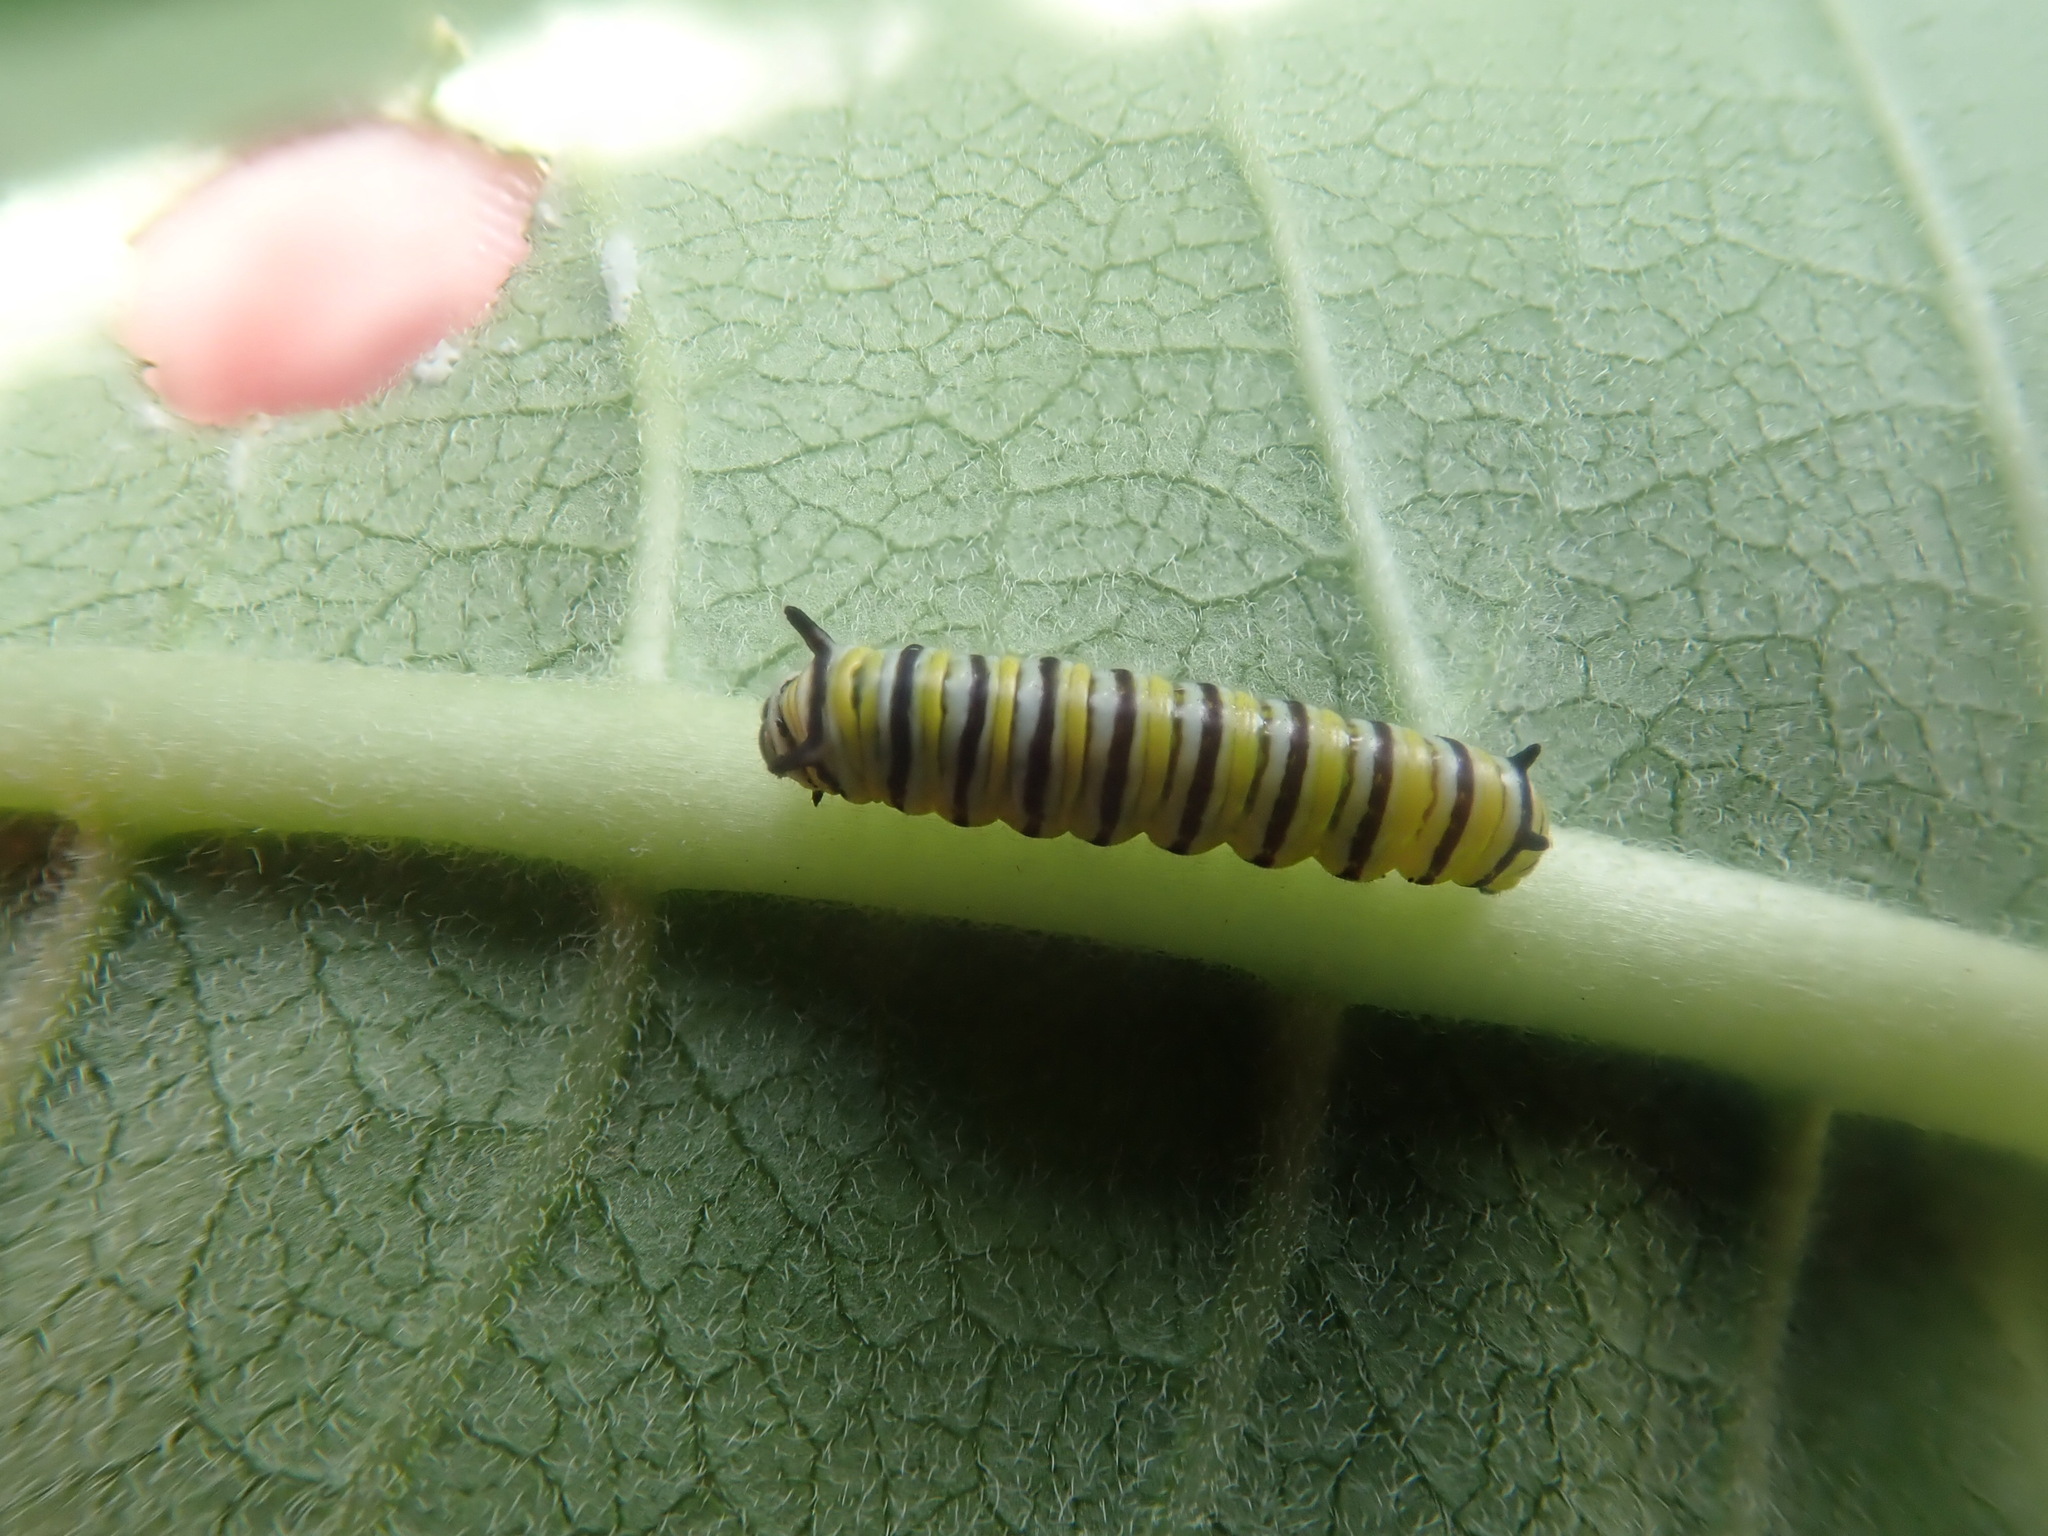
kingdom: Animalia
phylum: Arthropoda
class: Insecta
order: Lepidoptera
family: Nymphalidae
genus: Danaus
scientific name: Danaus plexippus
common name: Monarch
